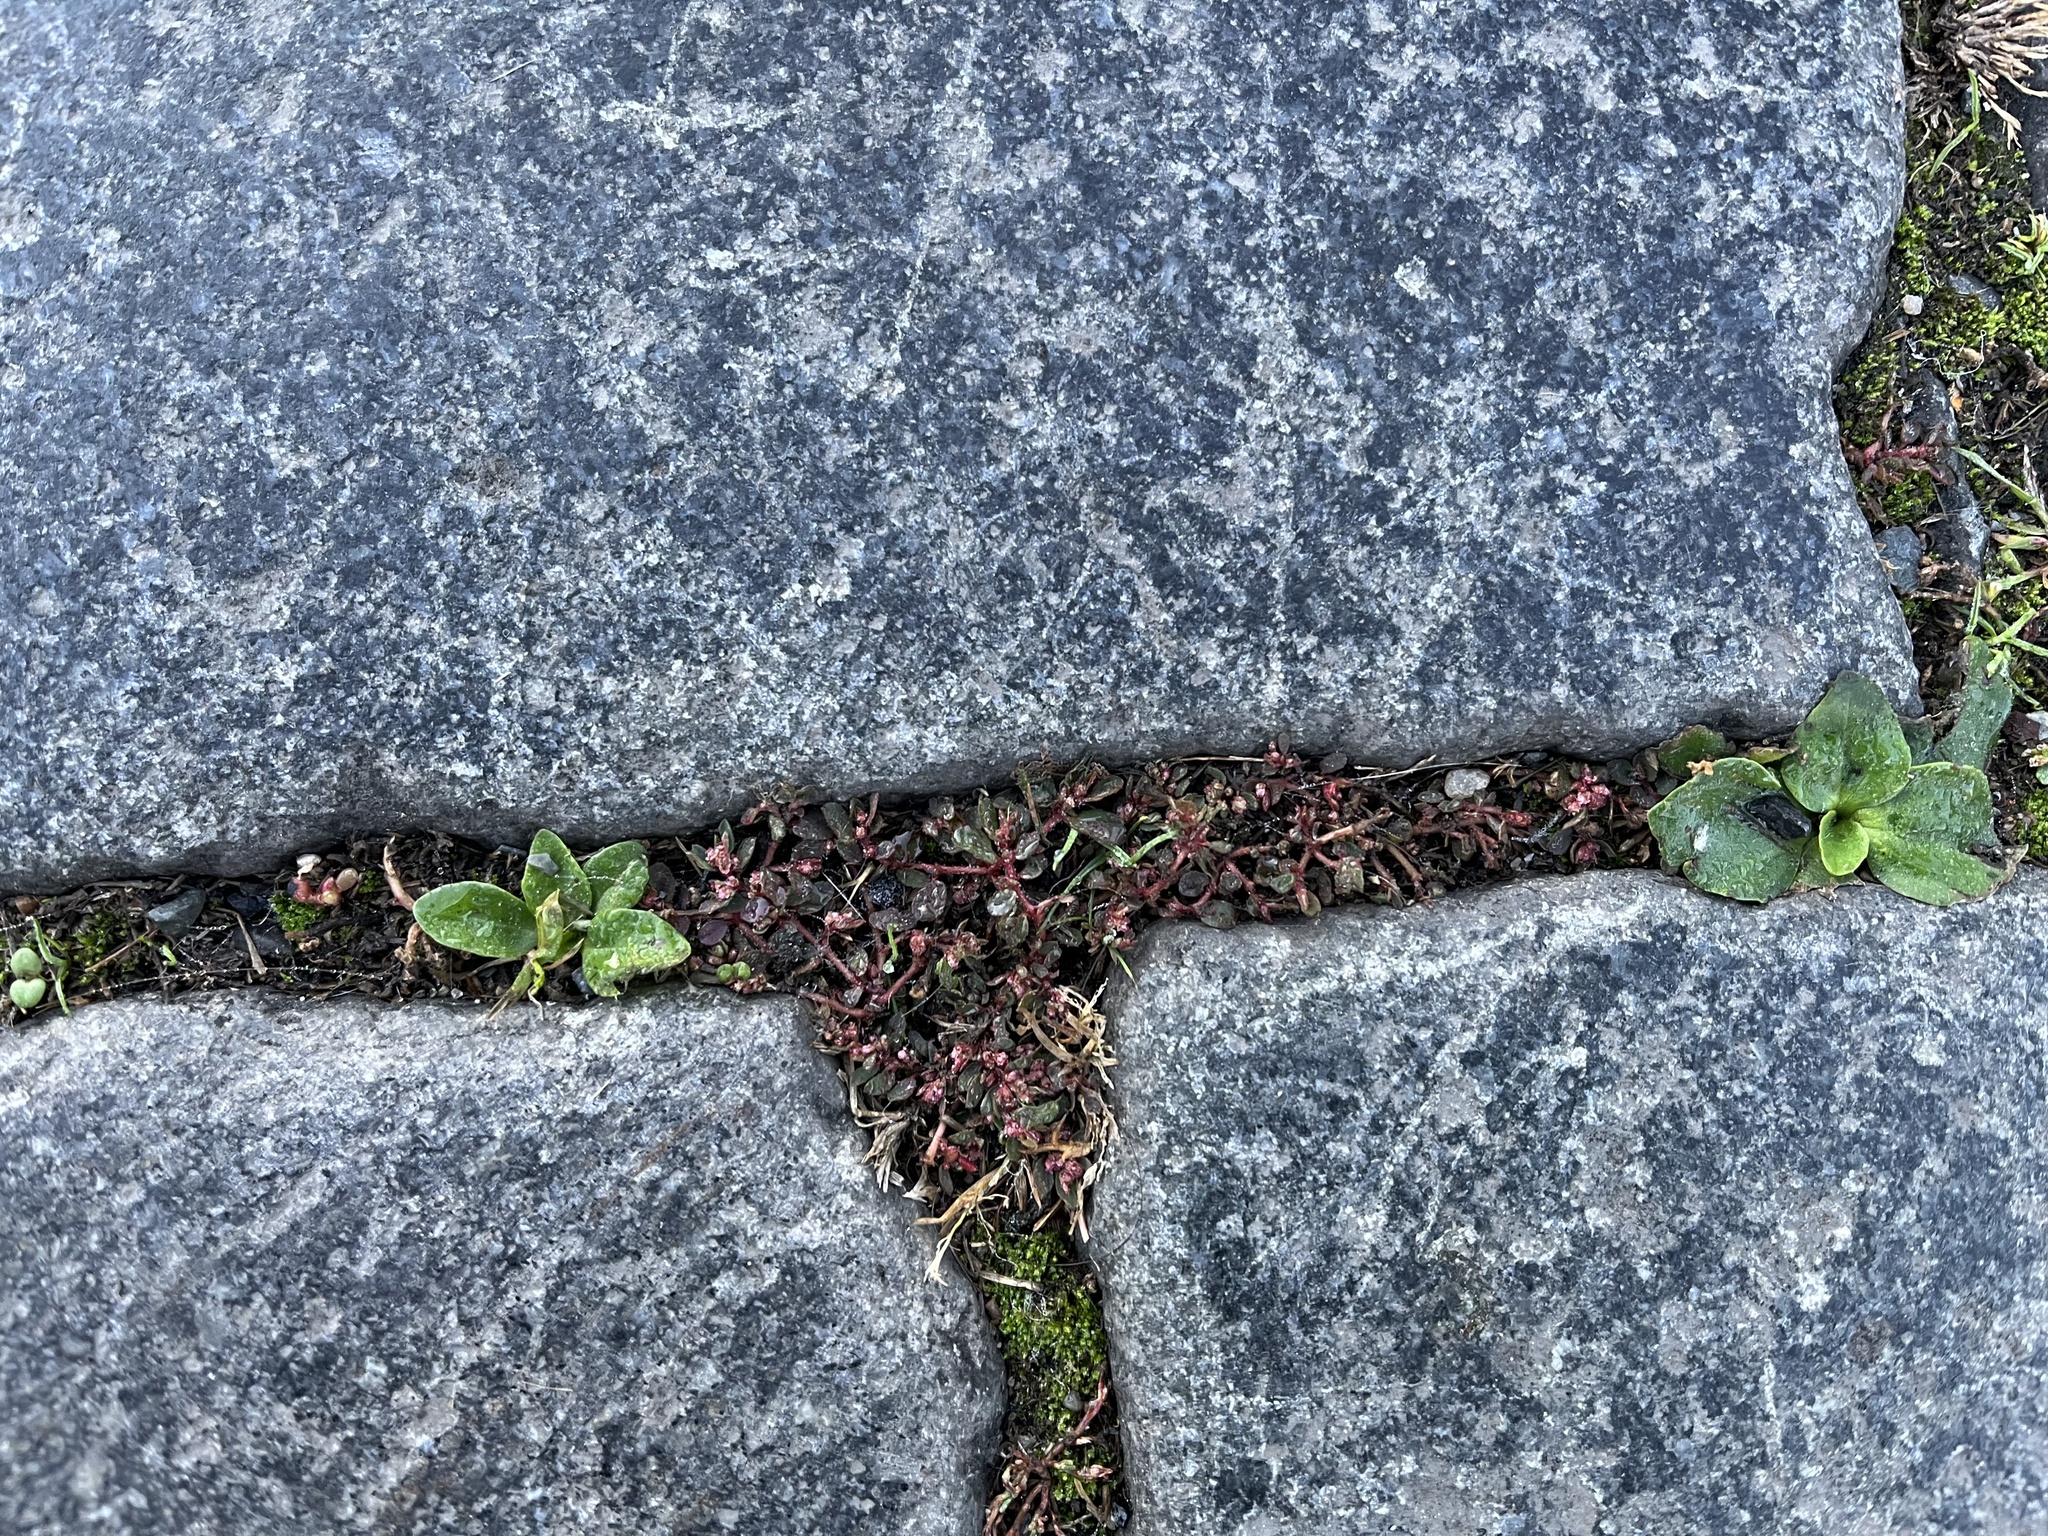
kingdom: Plantae
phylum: Tracheophyta
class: Magnoliopsida
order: Malpighiales
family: Euphorbiaceae
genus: Euphorbia
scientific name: Euphorbia maculata
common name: Spotted spurge
